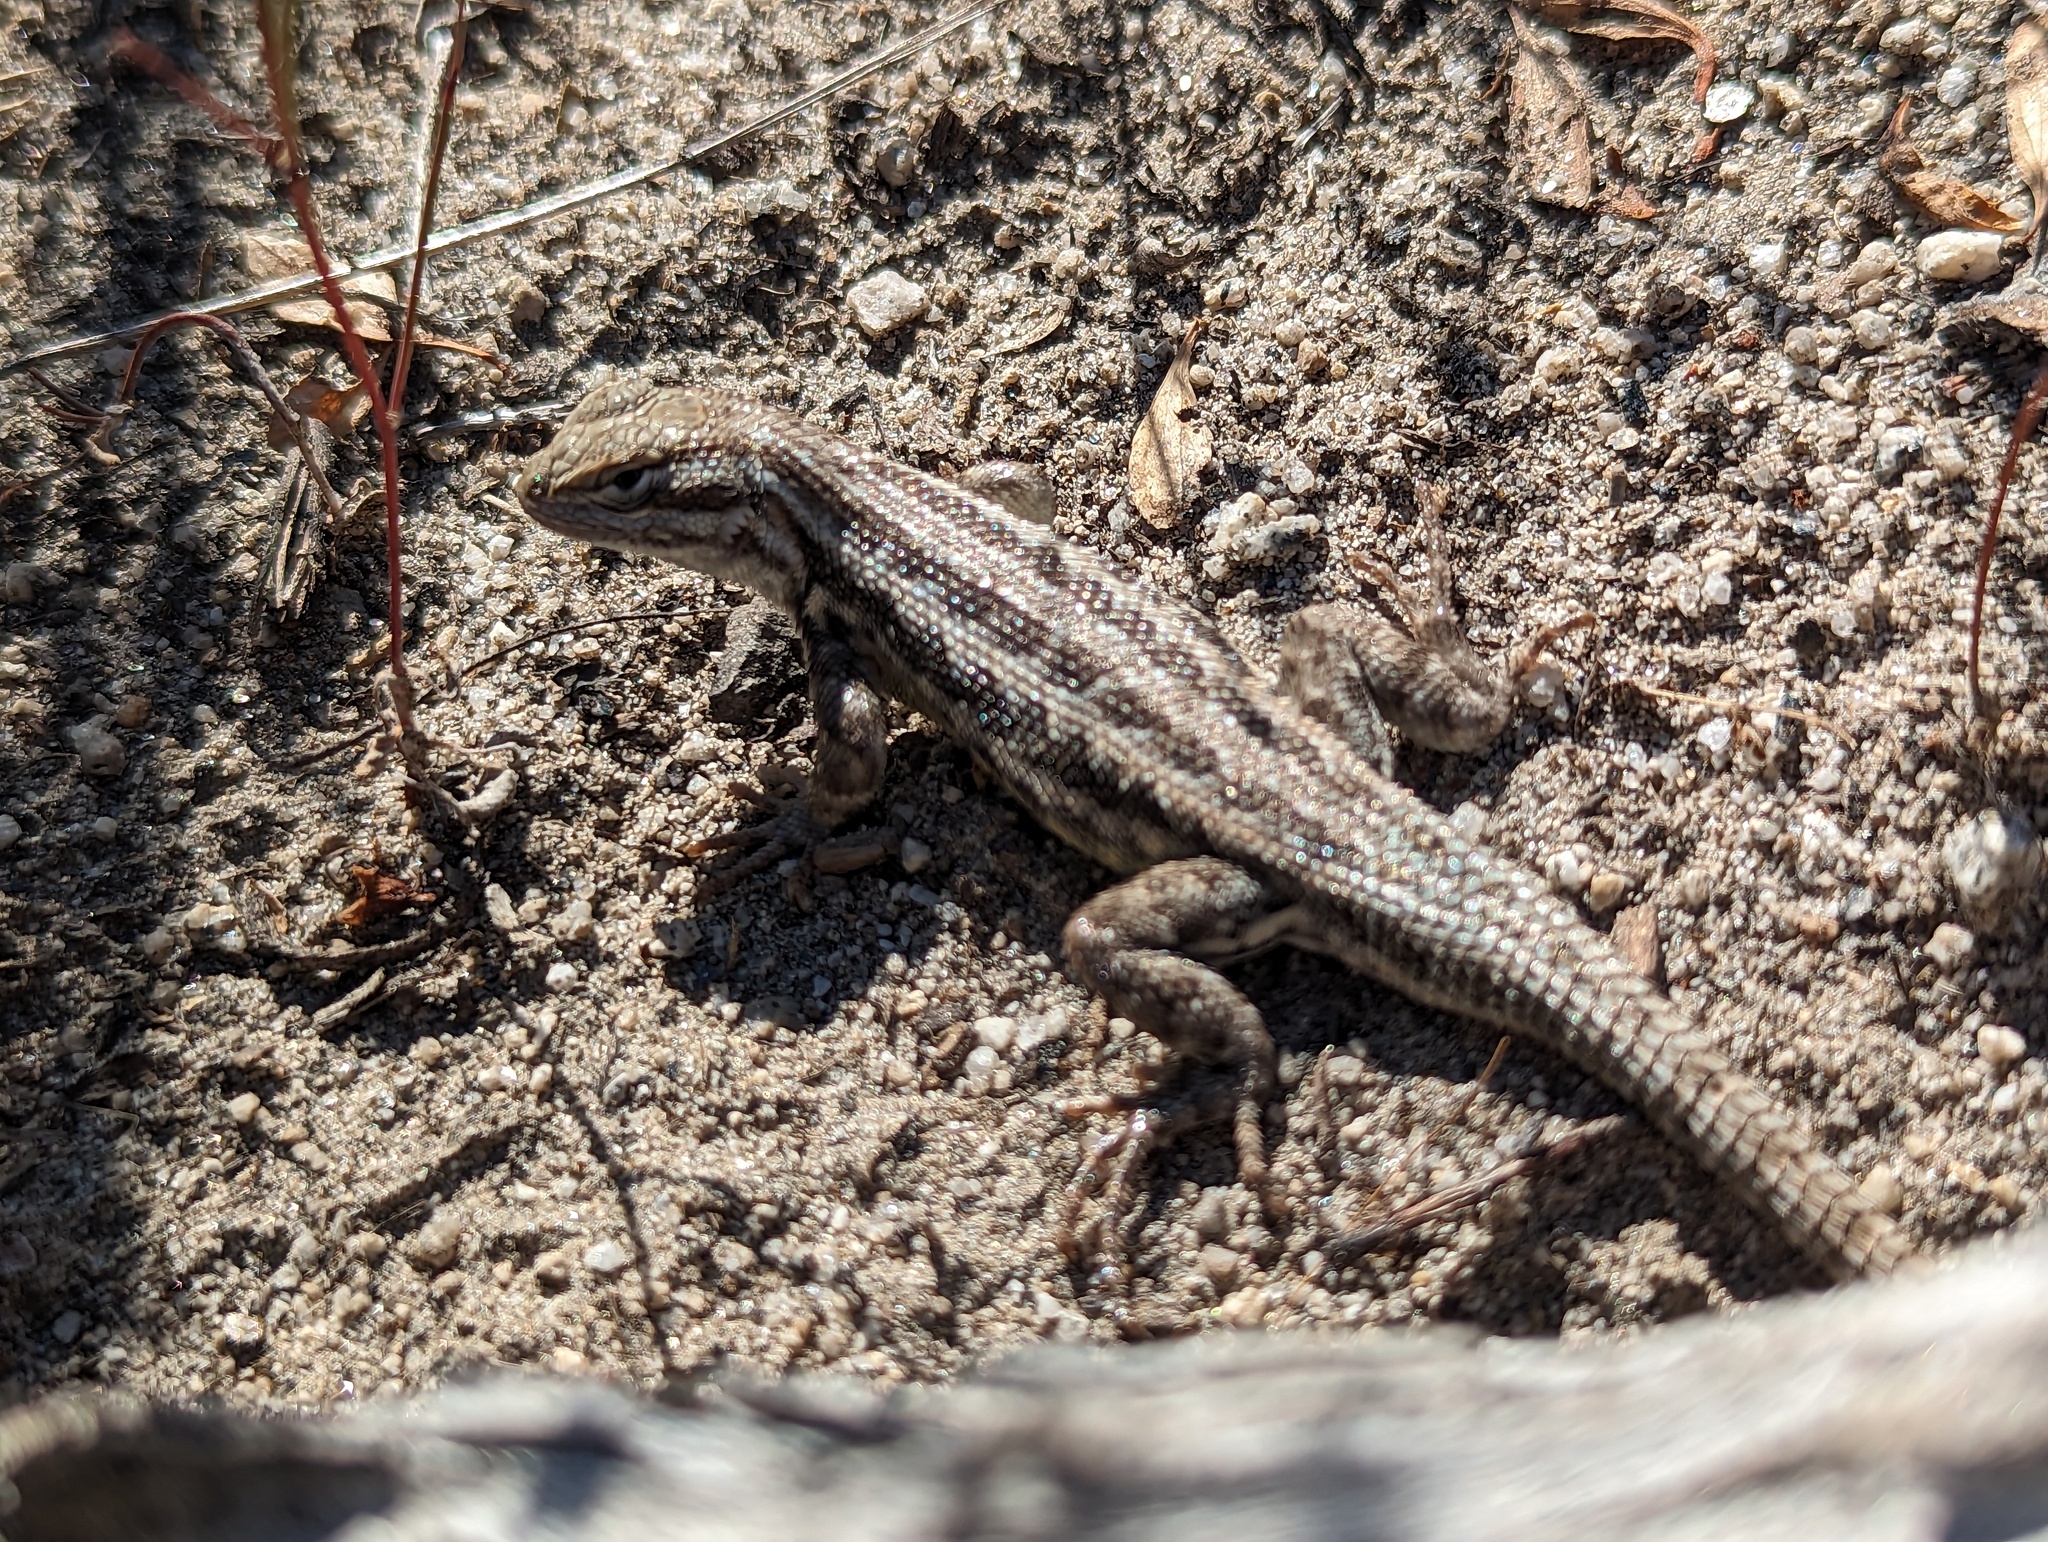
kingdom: Animalia
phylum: Chordata
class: Squamata
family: Phrynosomatidae
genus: Sceloporus
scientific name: Sceloporus graciosus
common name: Sagebrush lizard
